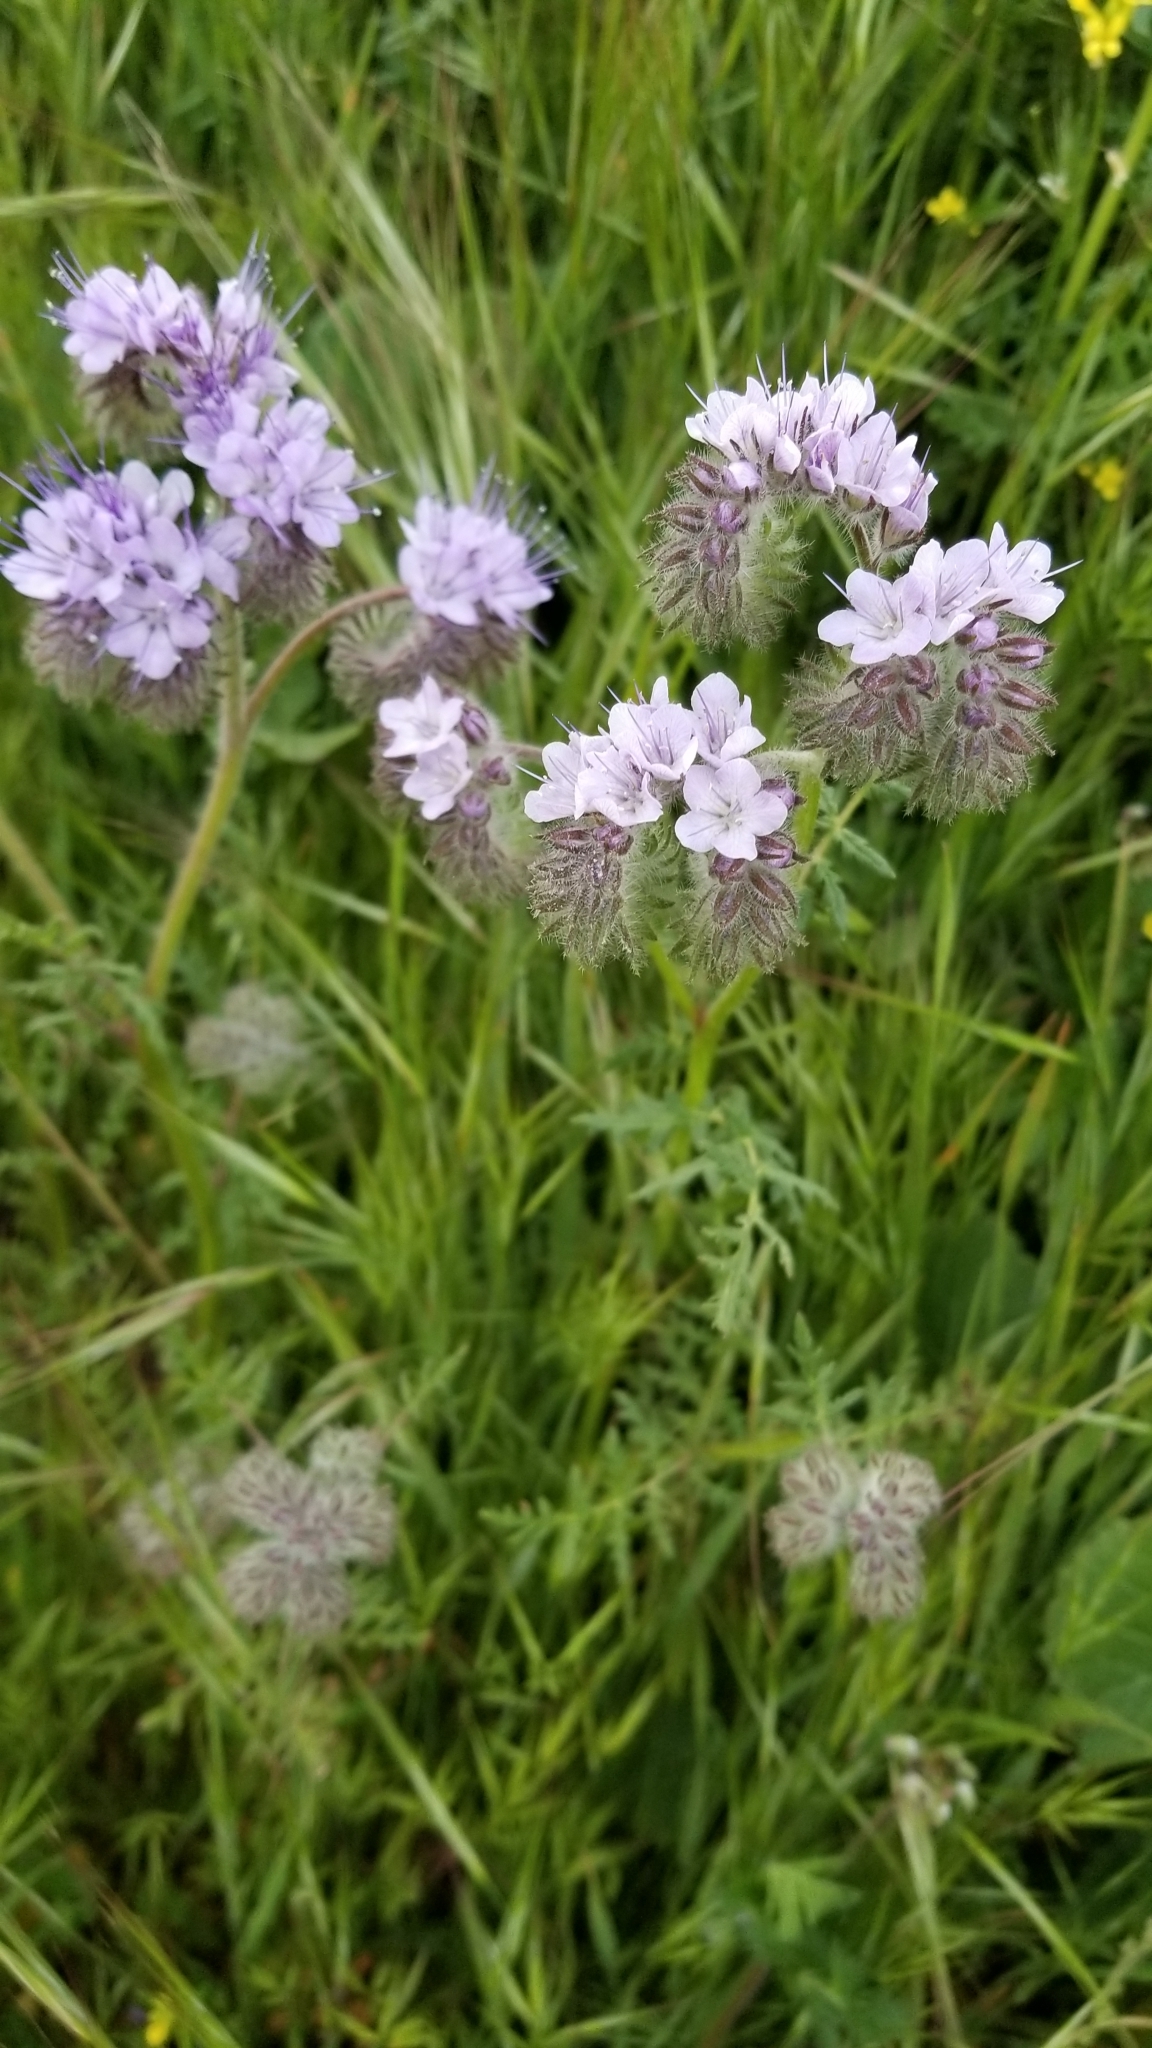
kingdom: Plantae
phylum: Tracheophyta
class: Magnoliopsida
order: Boraginales
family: Hydrophyllaceae
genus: Phacelia
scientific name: Phacelia tanacetifolia
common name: Phacelia
